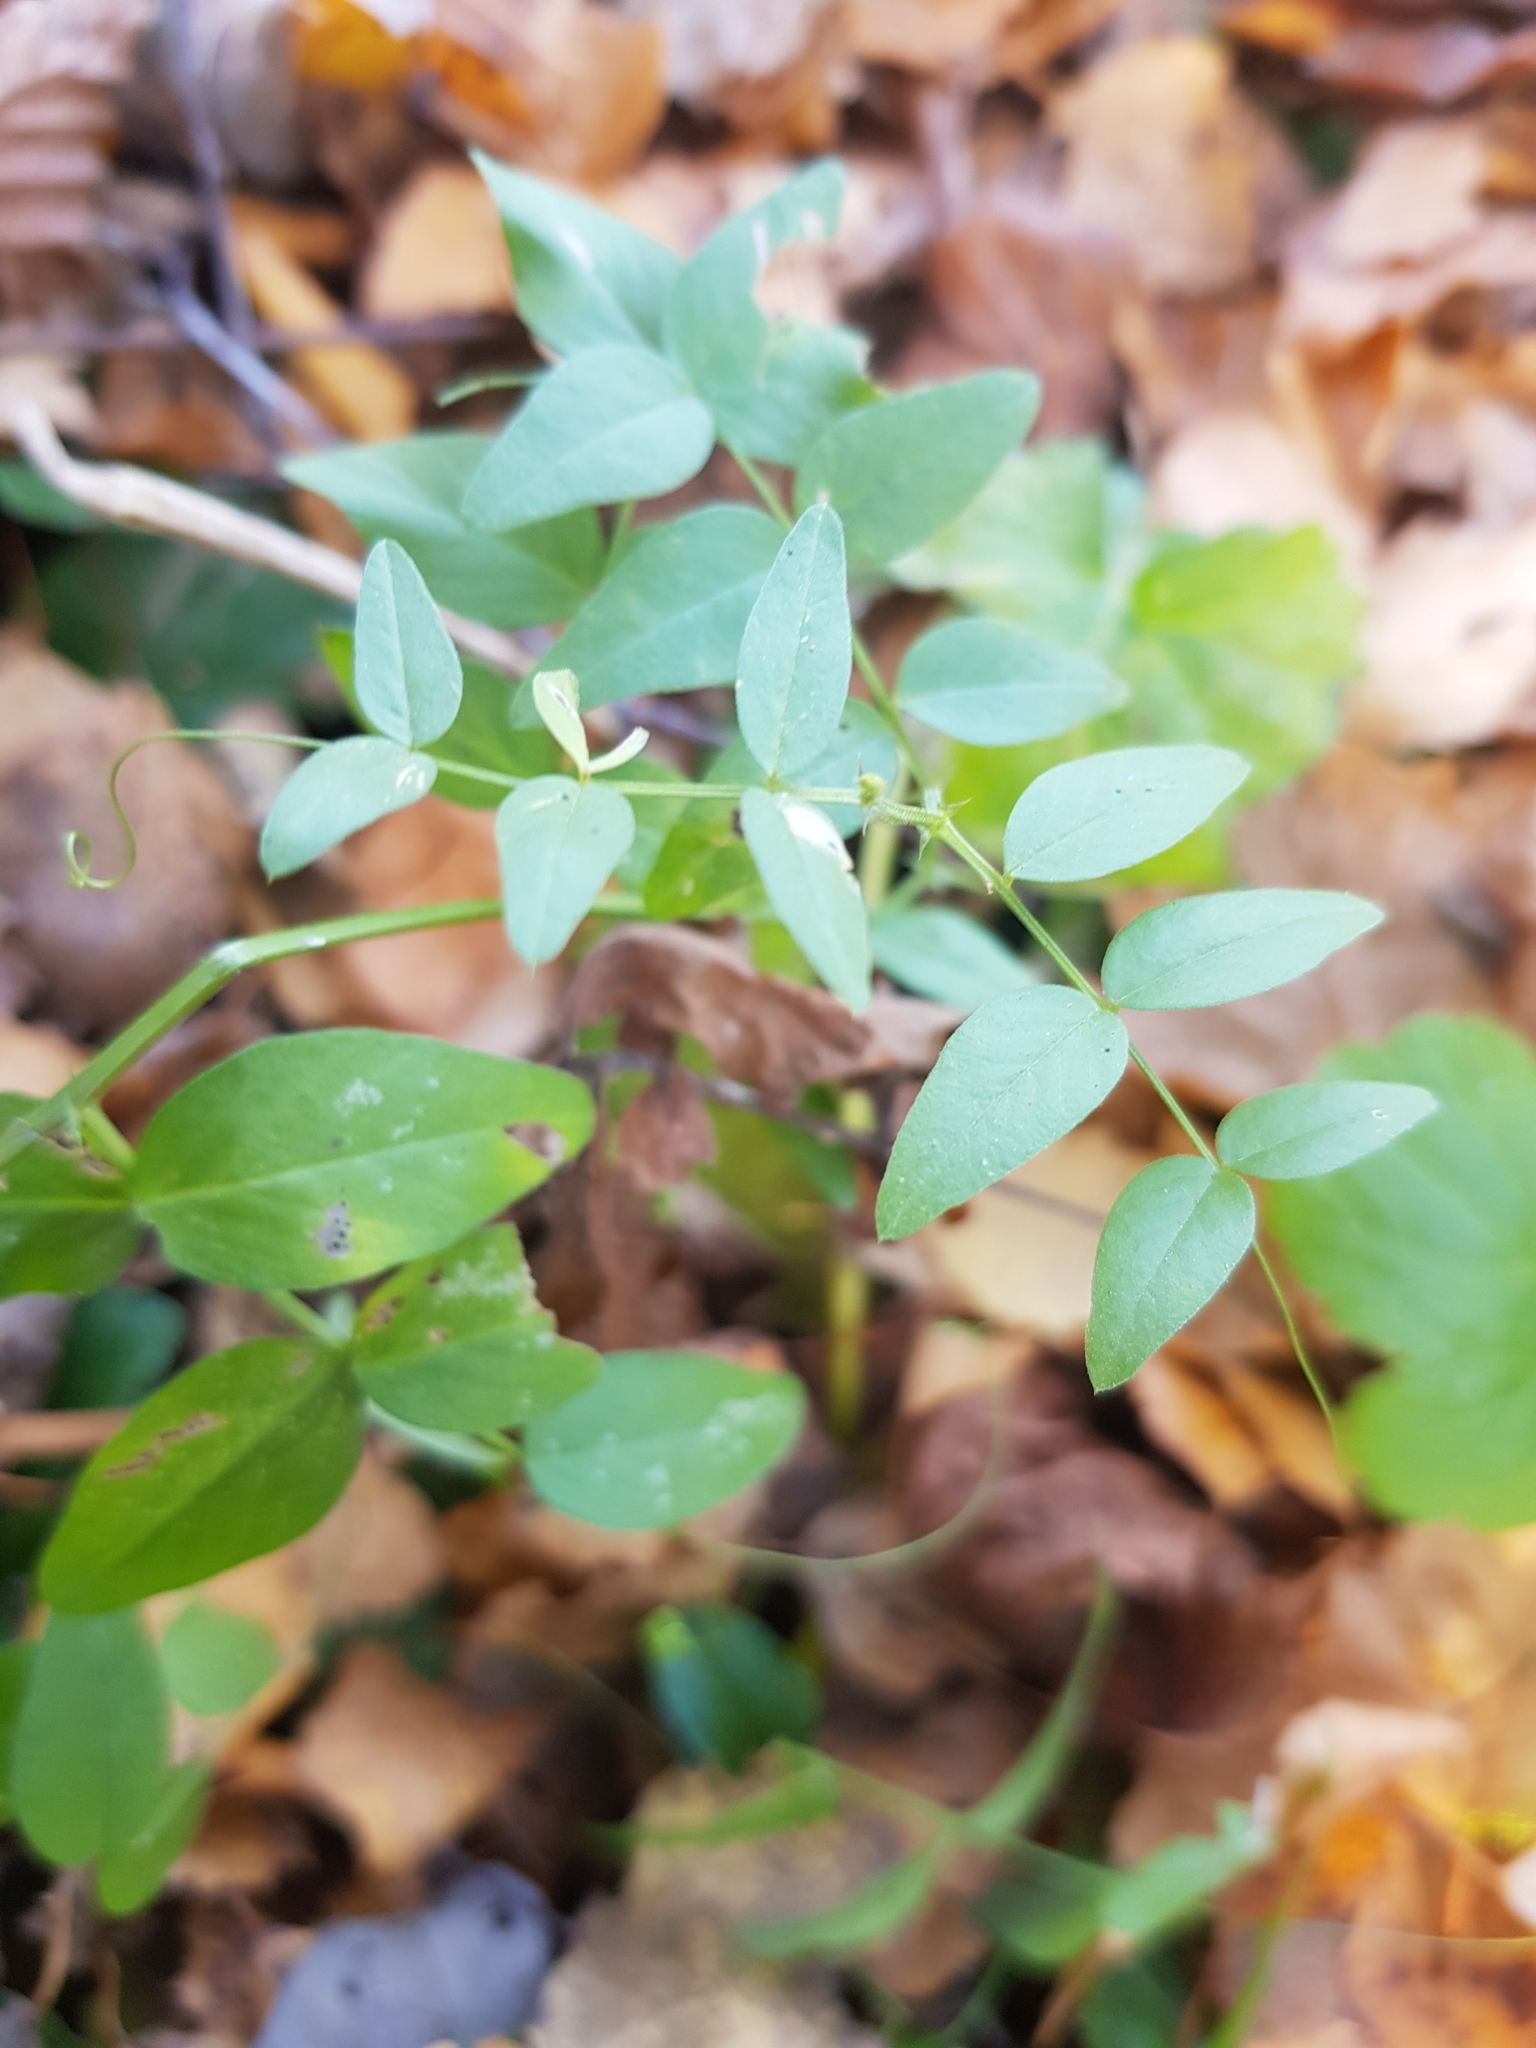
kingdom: Plantae
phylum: Tracheophyta
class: Magnoliopsida
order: Fabales
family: Fabaceae
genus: Vicia
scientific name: Vicia sepium
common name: Bush vetch
